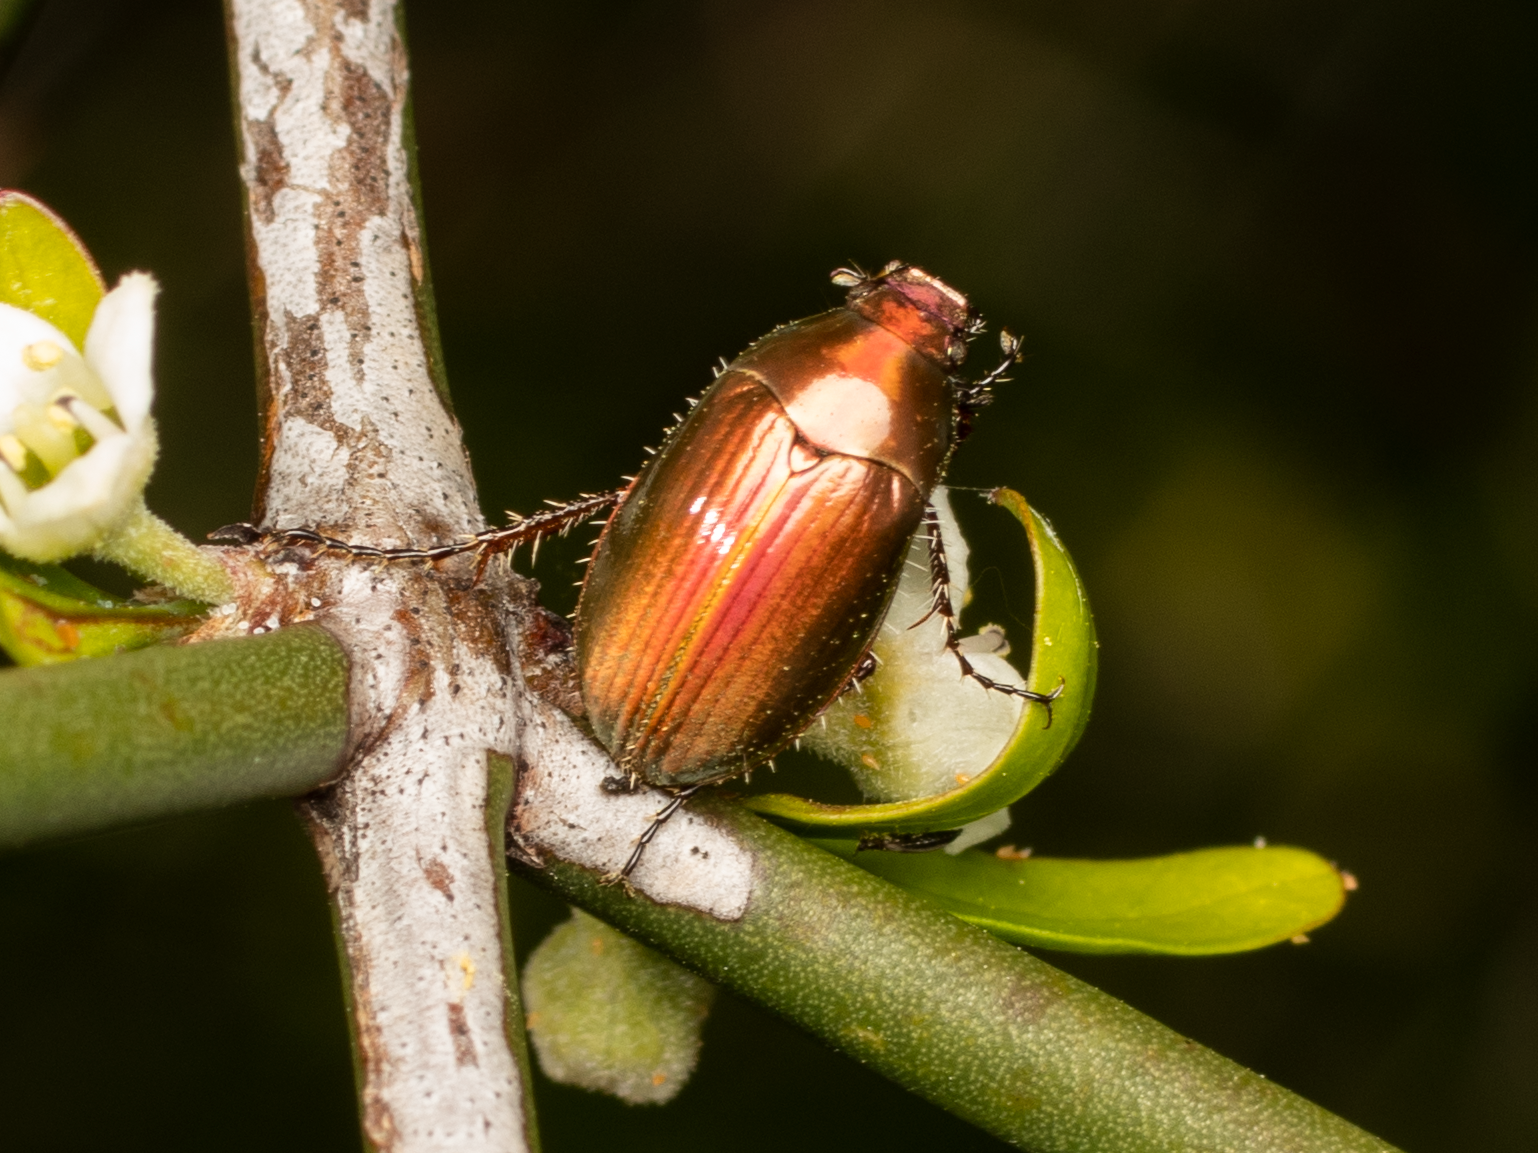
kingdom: Animalia
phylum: Arthropoda
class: Insecta
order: Coleoptera
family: Scarabaeidae
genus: Pyronota
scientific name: Pyronota edwardsi
